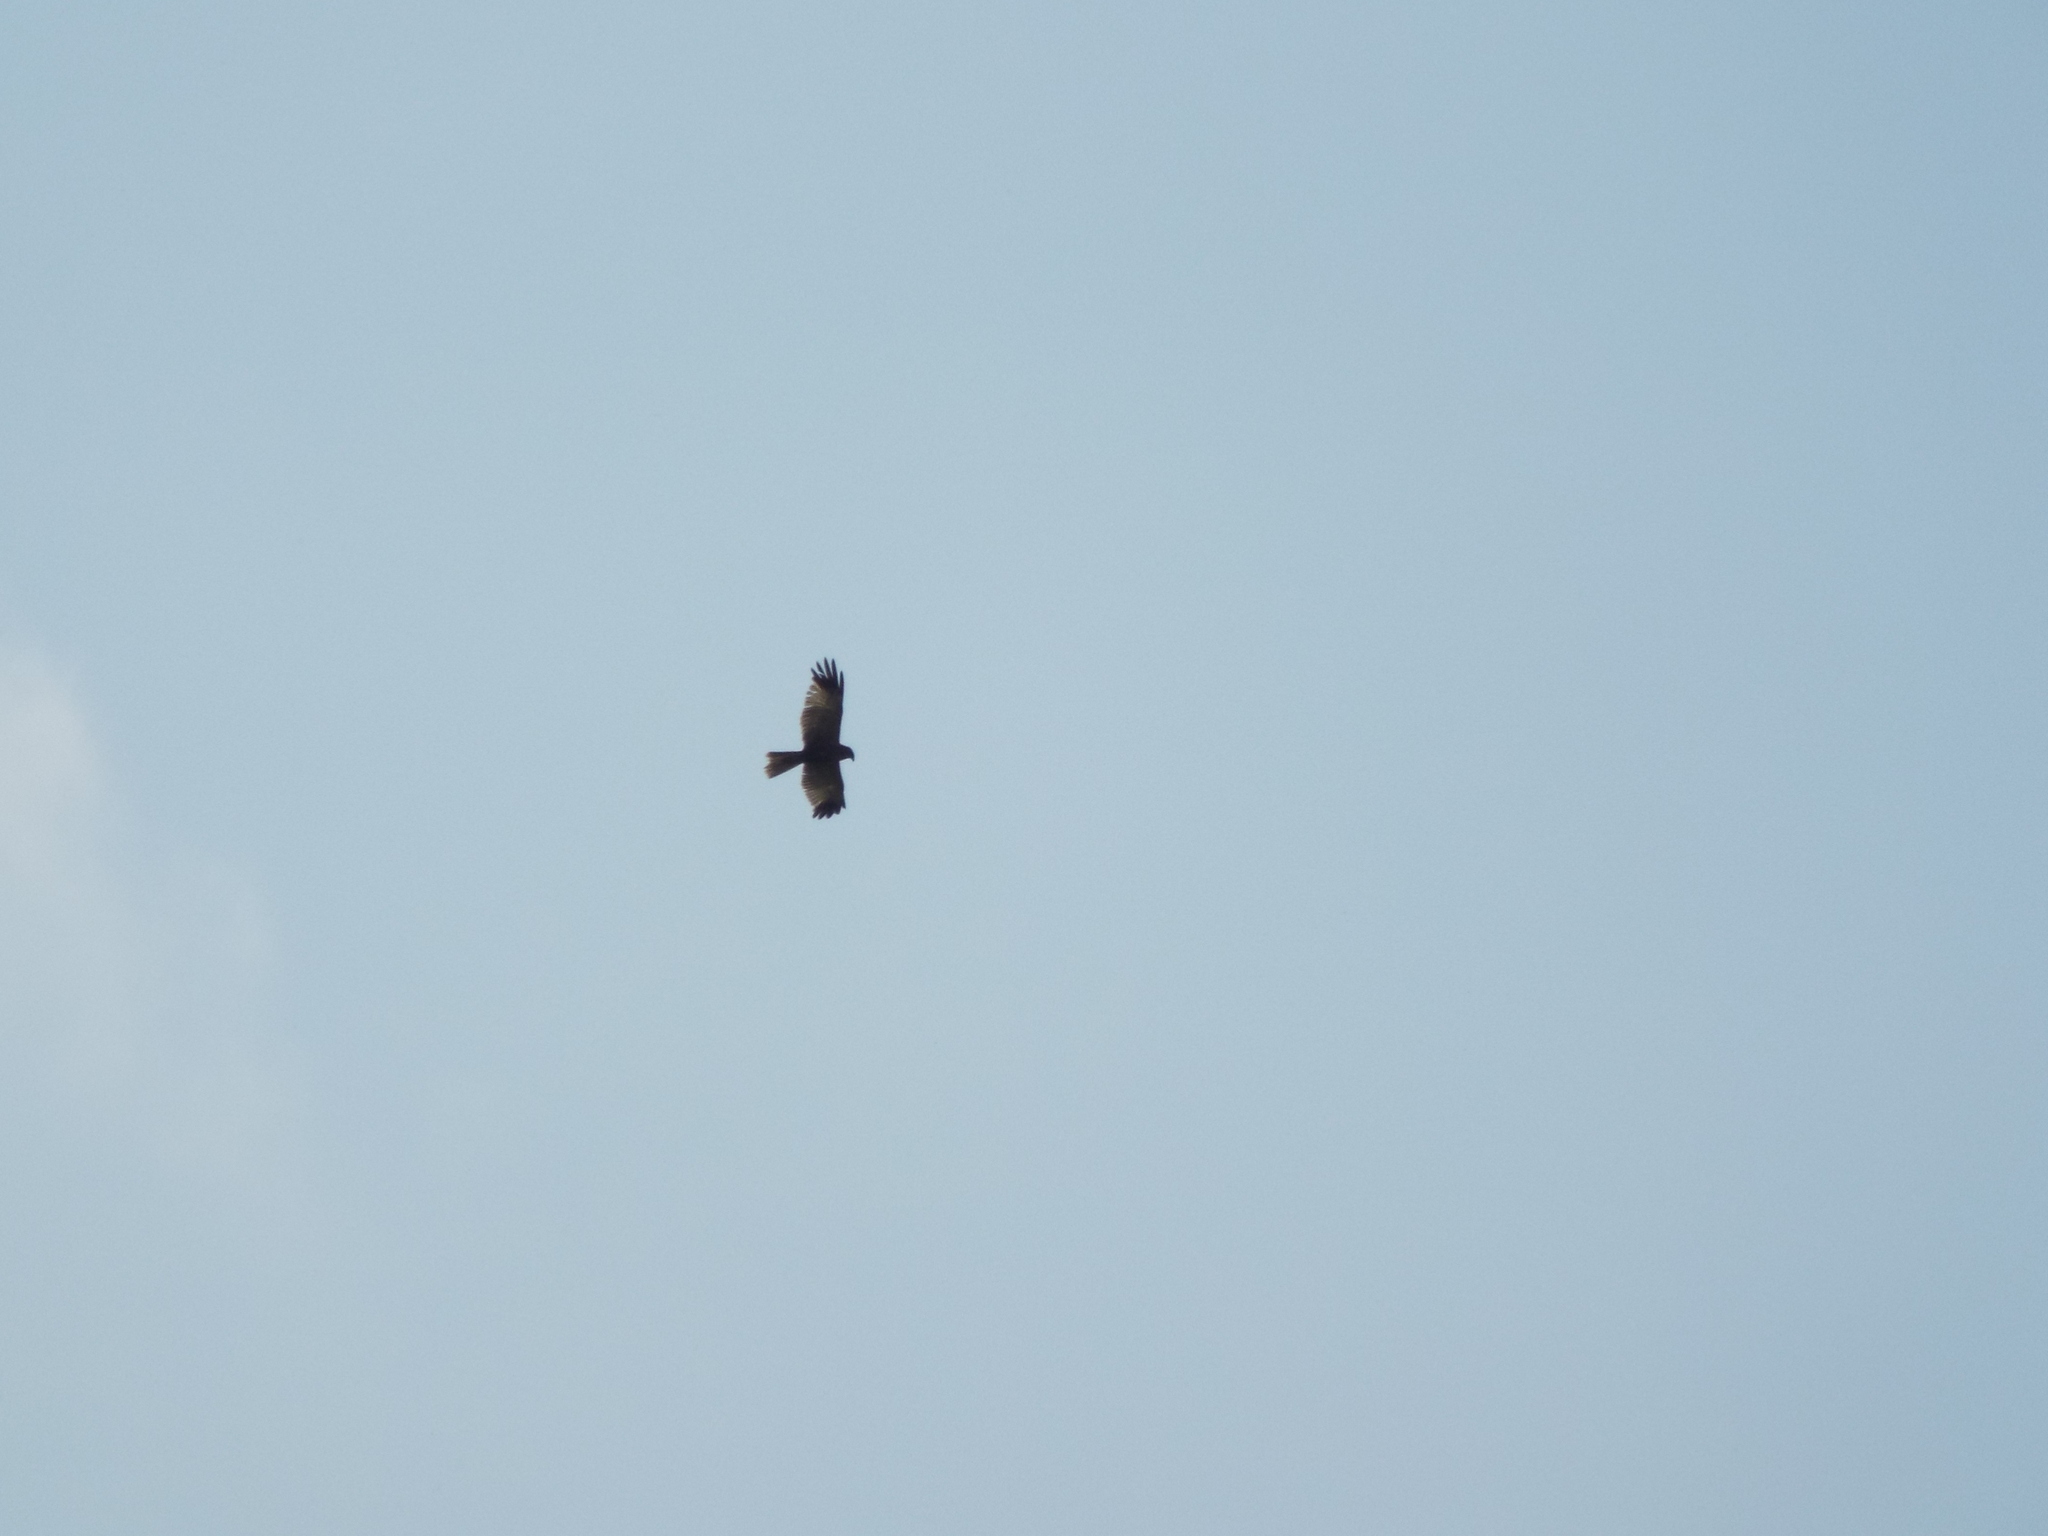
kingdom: Animalia
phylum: Chordata
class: Aves
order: Accipitriformes
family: Accipitridae
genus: Circus
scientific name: Circus aeruginosus
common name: Western marsh harrier
